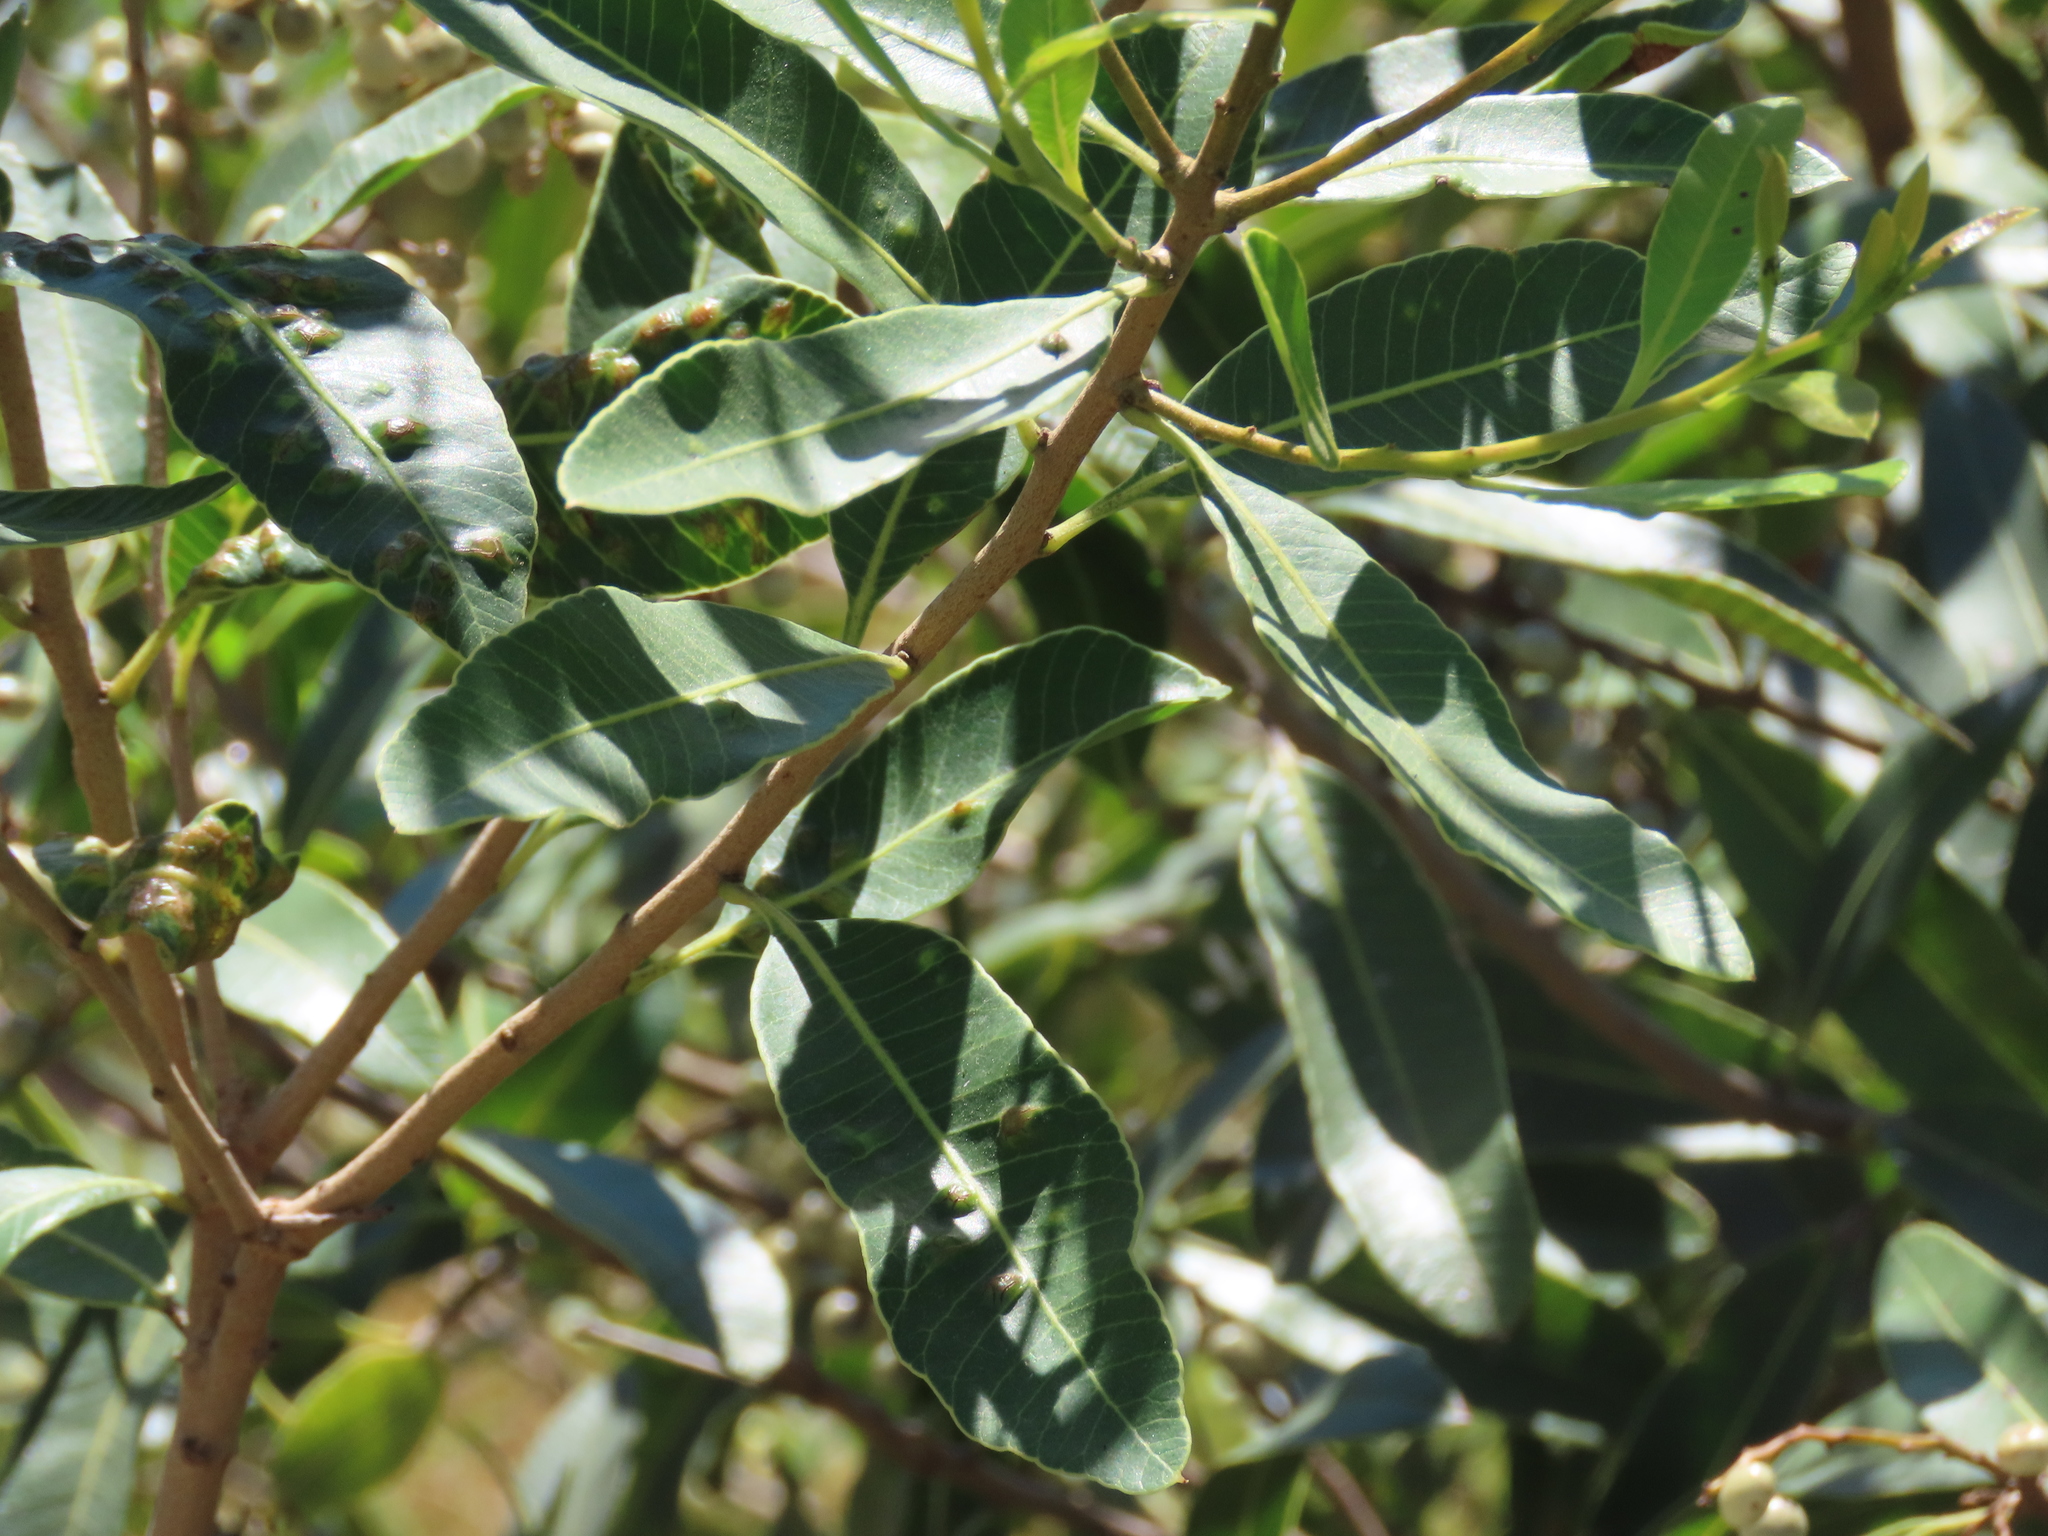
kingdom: Plantae
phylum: Tracheophyta
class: Magnoliopsida
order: Sapindales
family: Anacardiaceae
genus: Lithraea
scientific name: Lithraea brasiliensis
